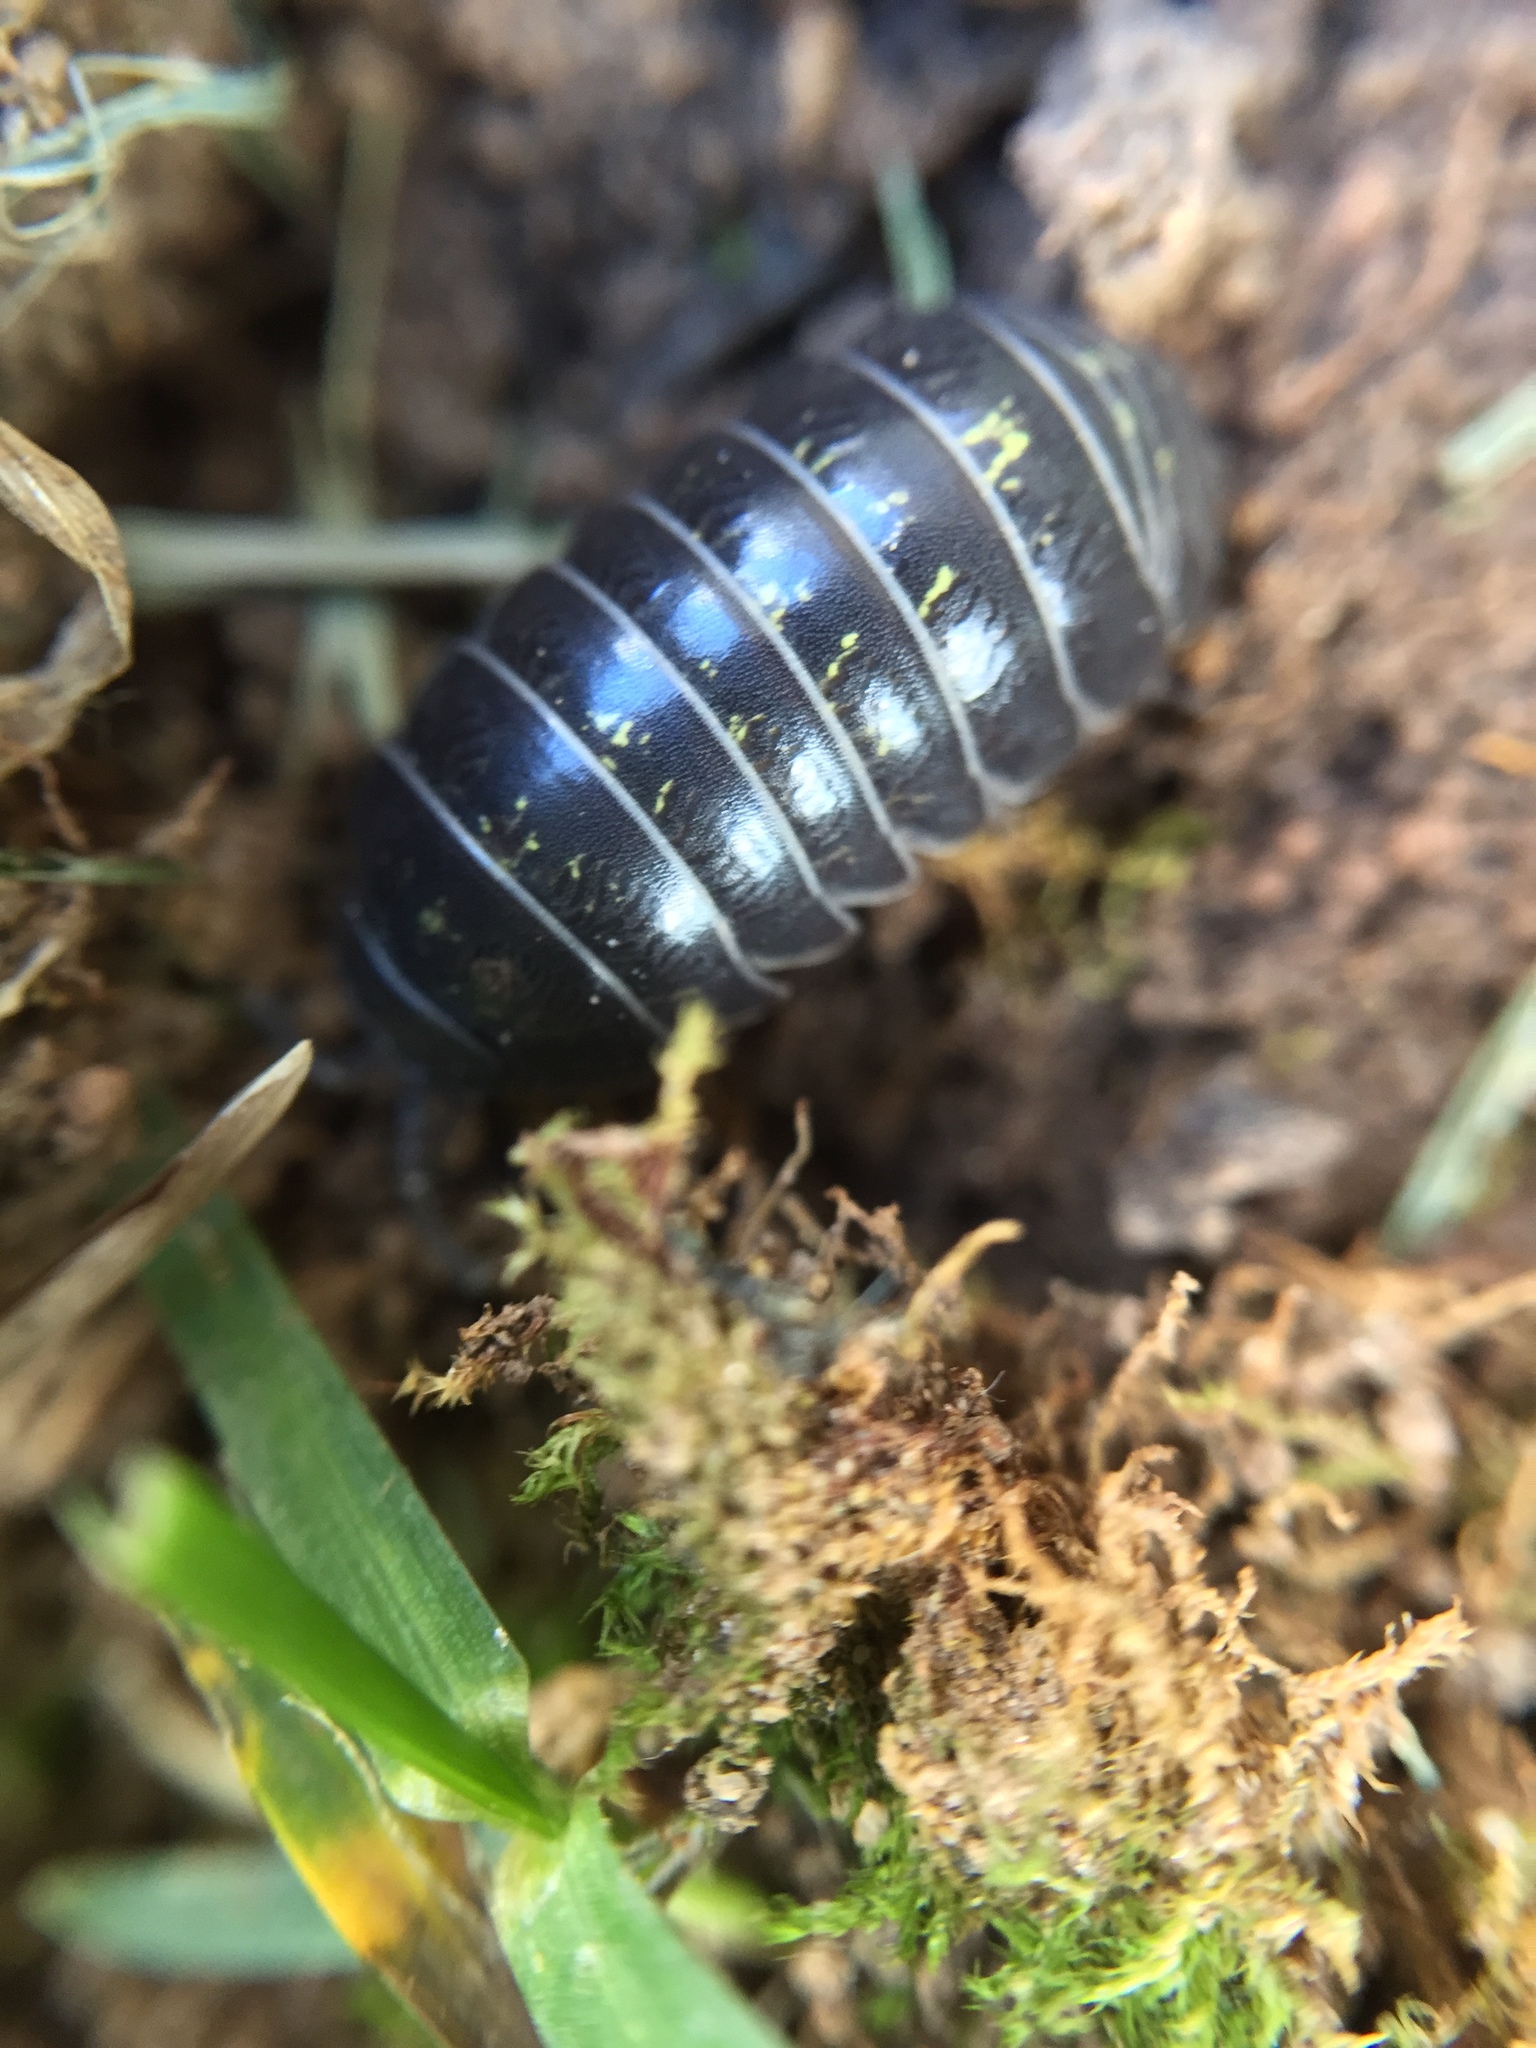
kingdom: Animalia
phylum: Arthropoda
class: Malacostraca
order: Isopoda
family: Armadillidiidae
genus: Armadillidium
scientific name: Armadillidium vulgare
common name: Common pill woodlouse
